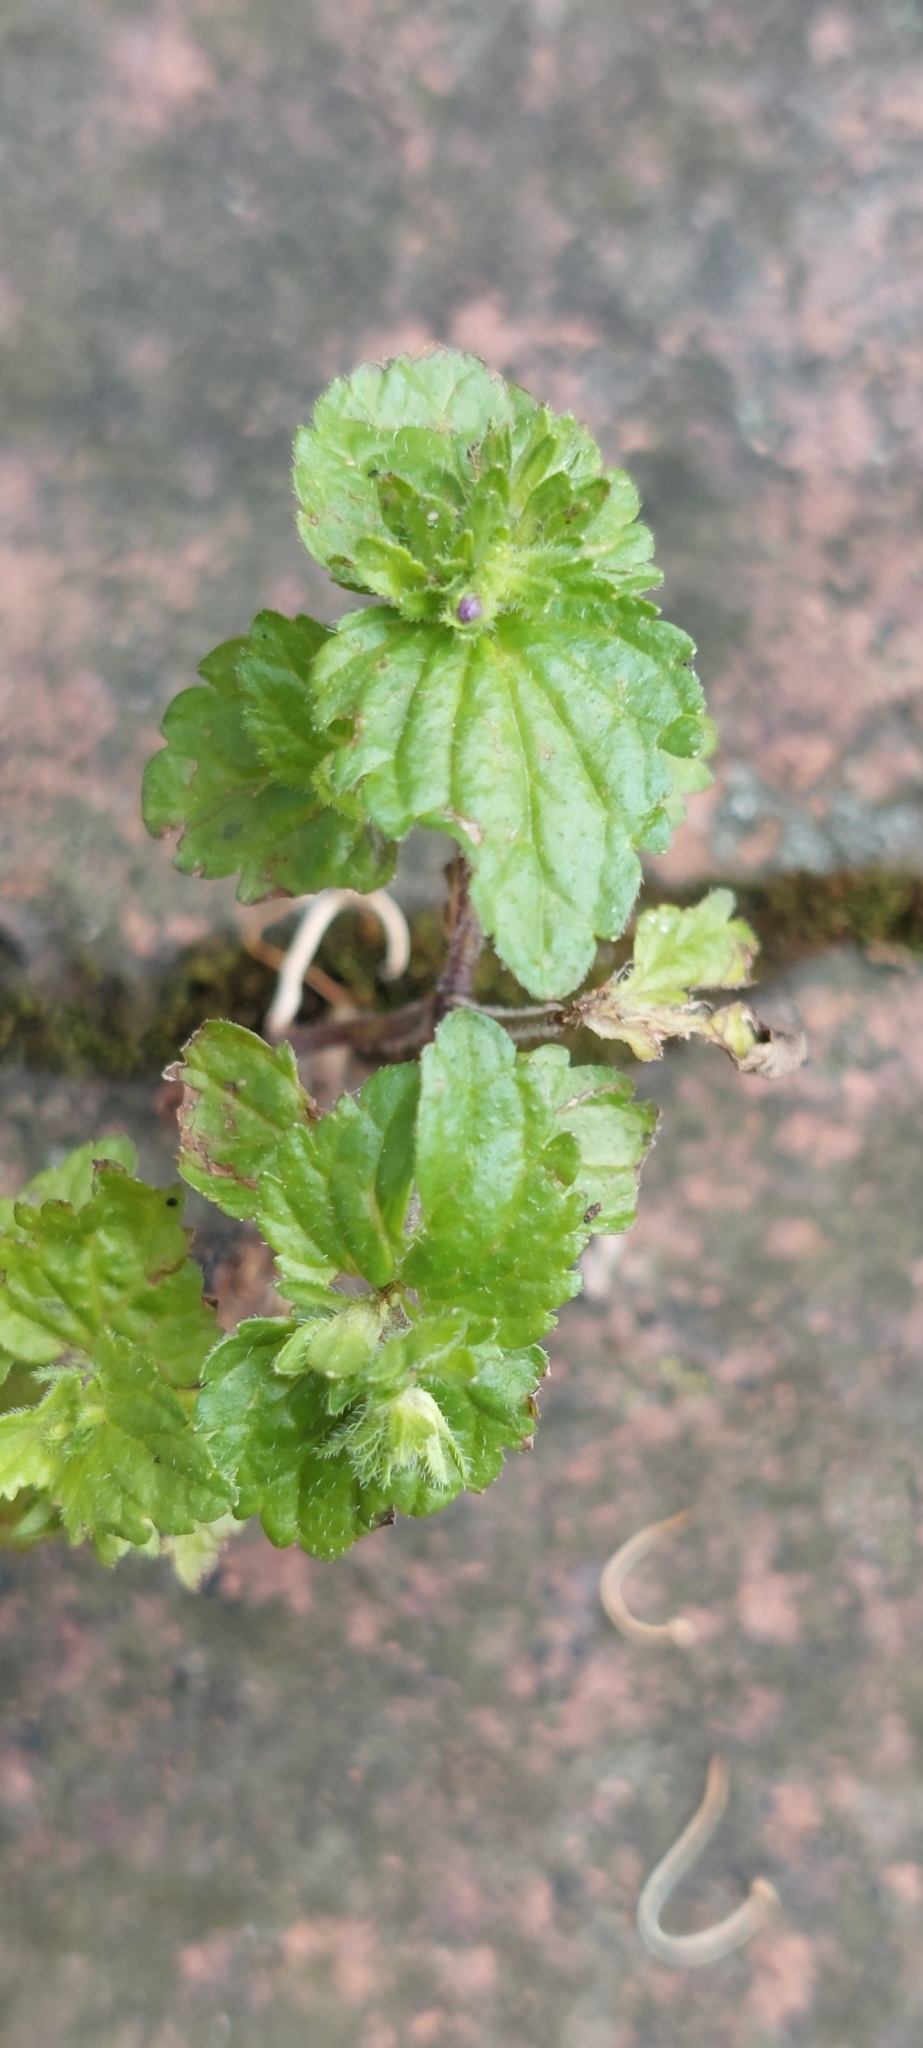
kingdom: Plantae
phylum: Tracheophyta
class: Magnoliopsida
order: Lamiales
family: Plantaginaceae
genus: Veronica
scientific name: Veronica javanica
